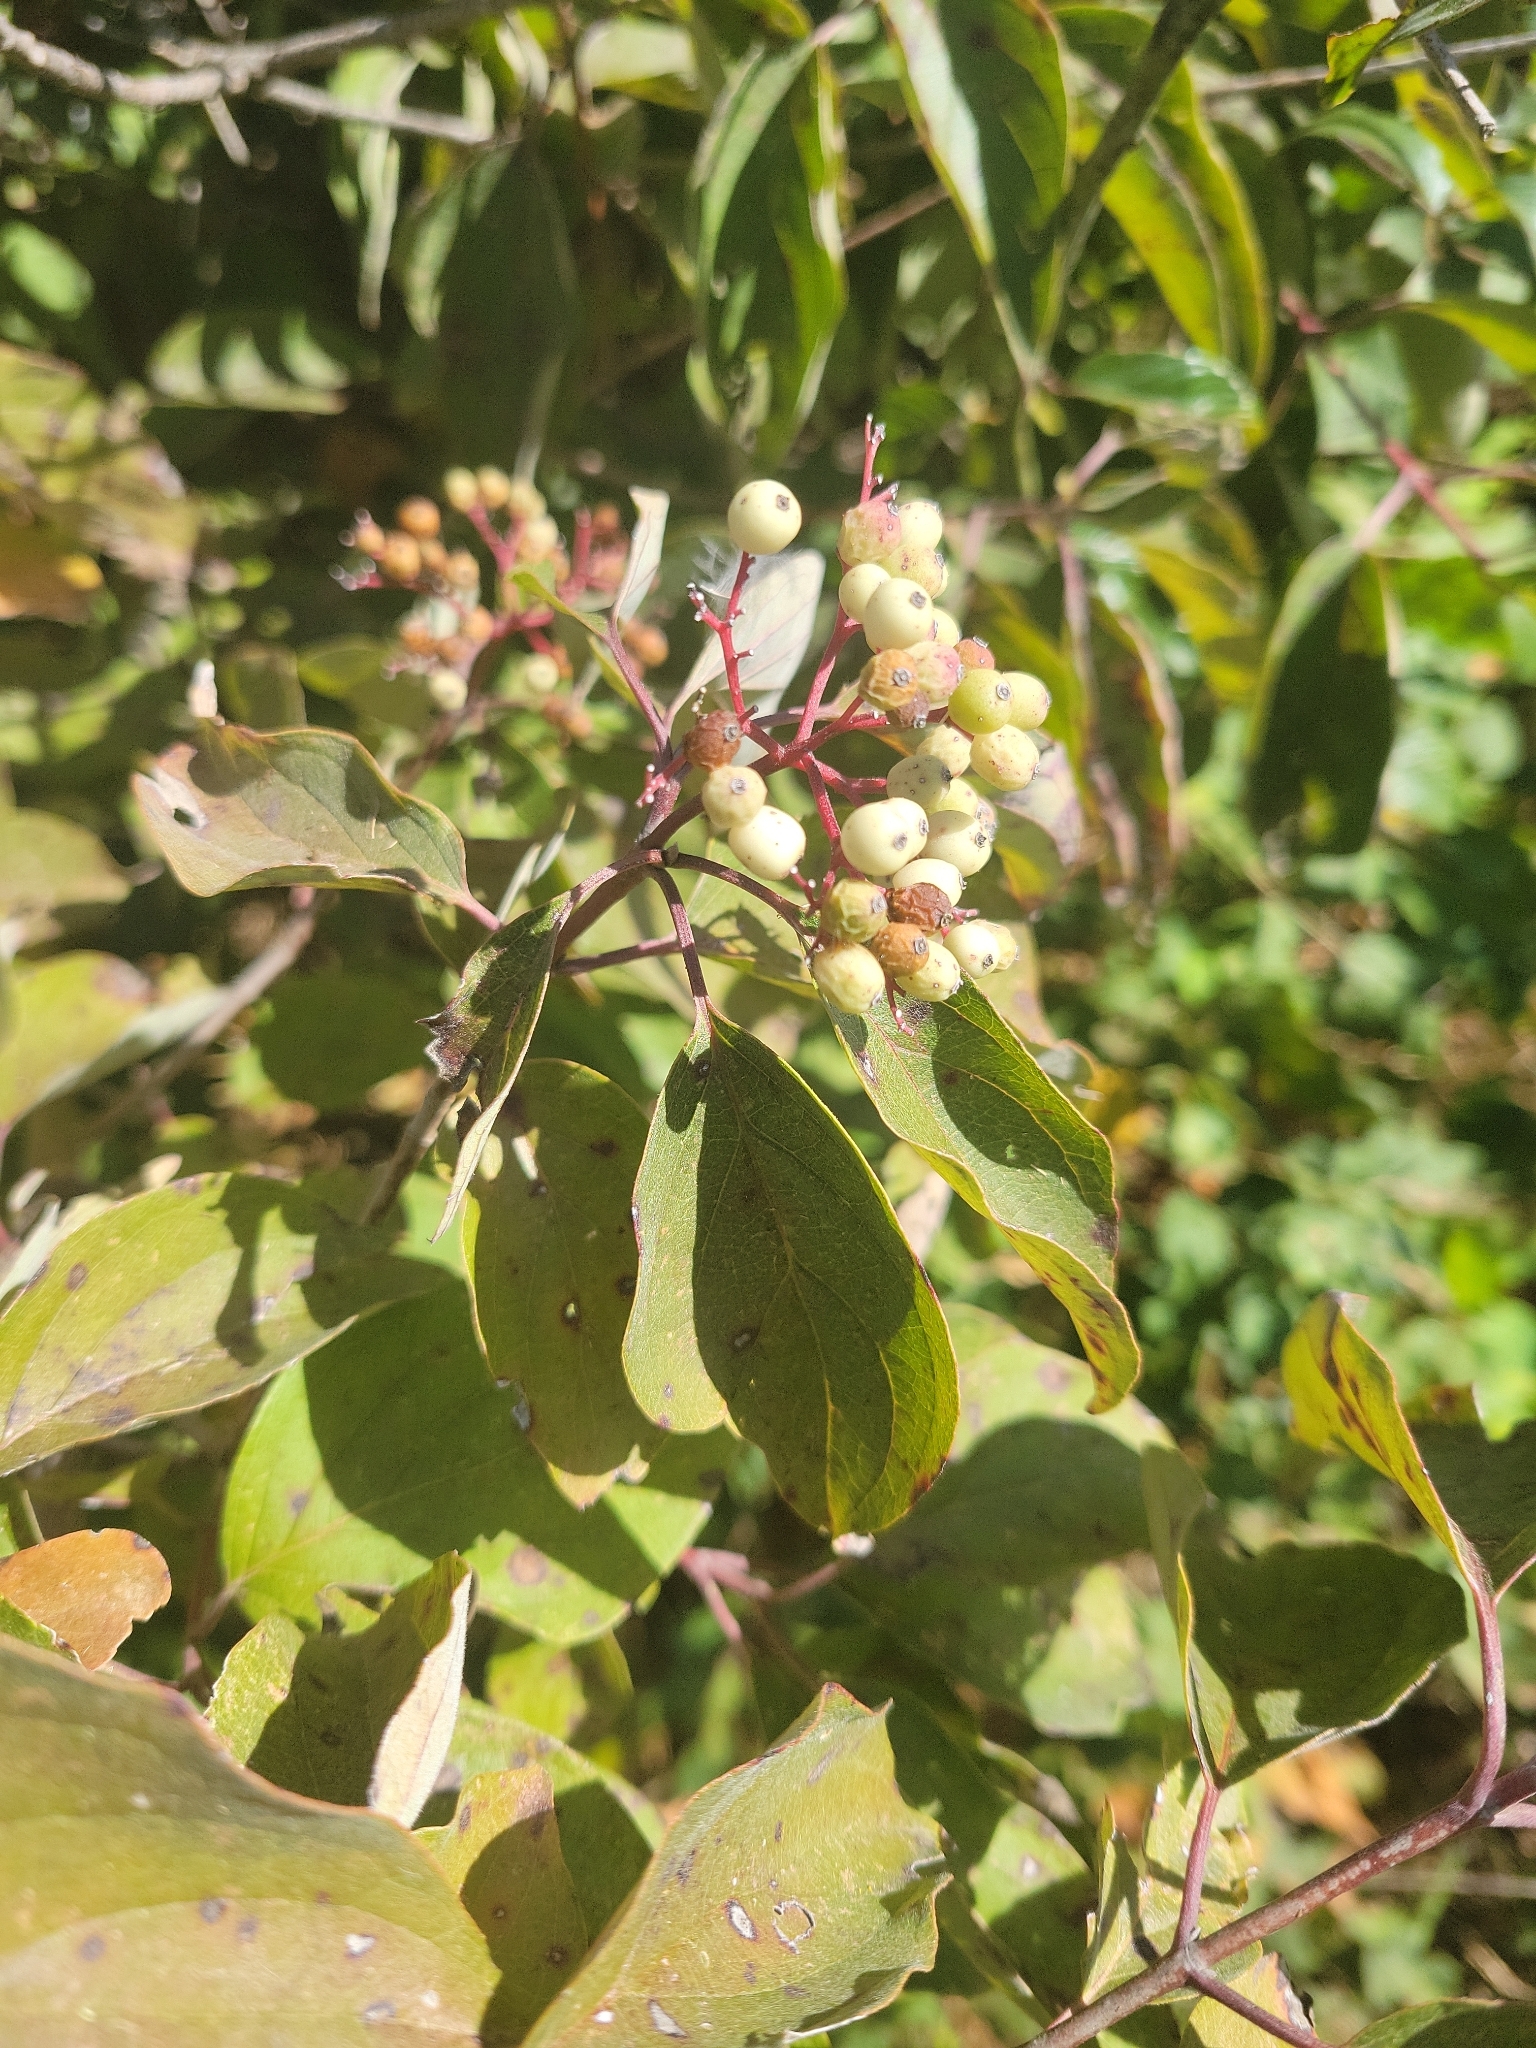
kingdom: Plantae
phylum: Tracheophyta
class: Magnoliopsida
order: Cornales
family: Cornaceae
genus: Cornus
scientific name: Cornus drummondii
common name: Rough-leaf dogwood
